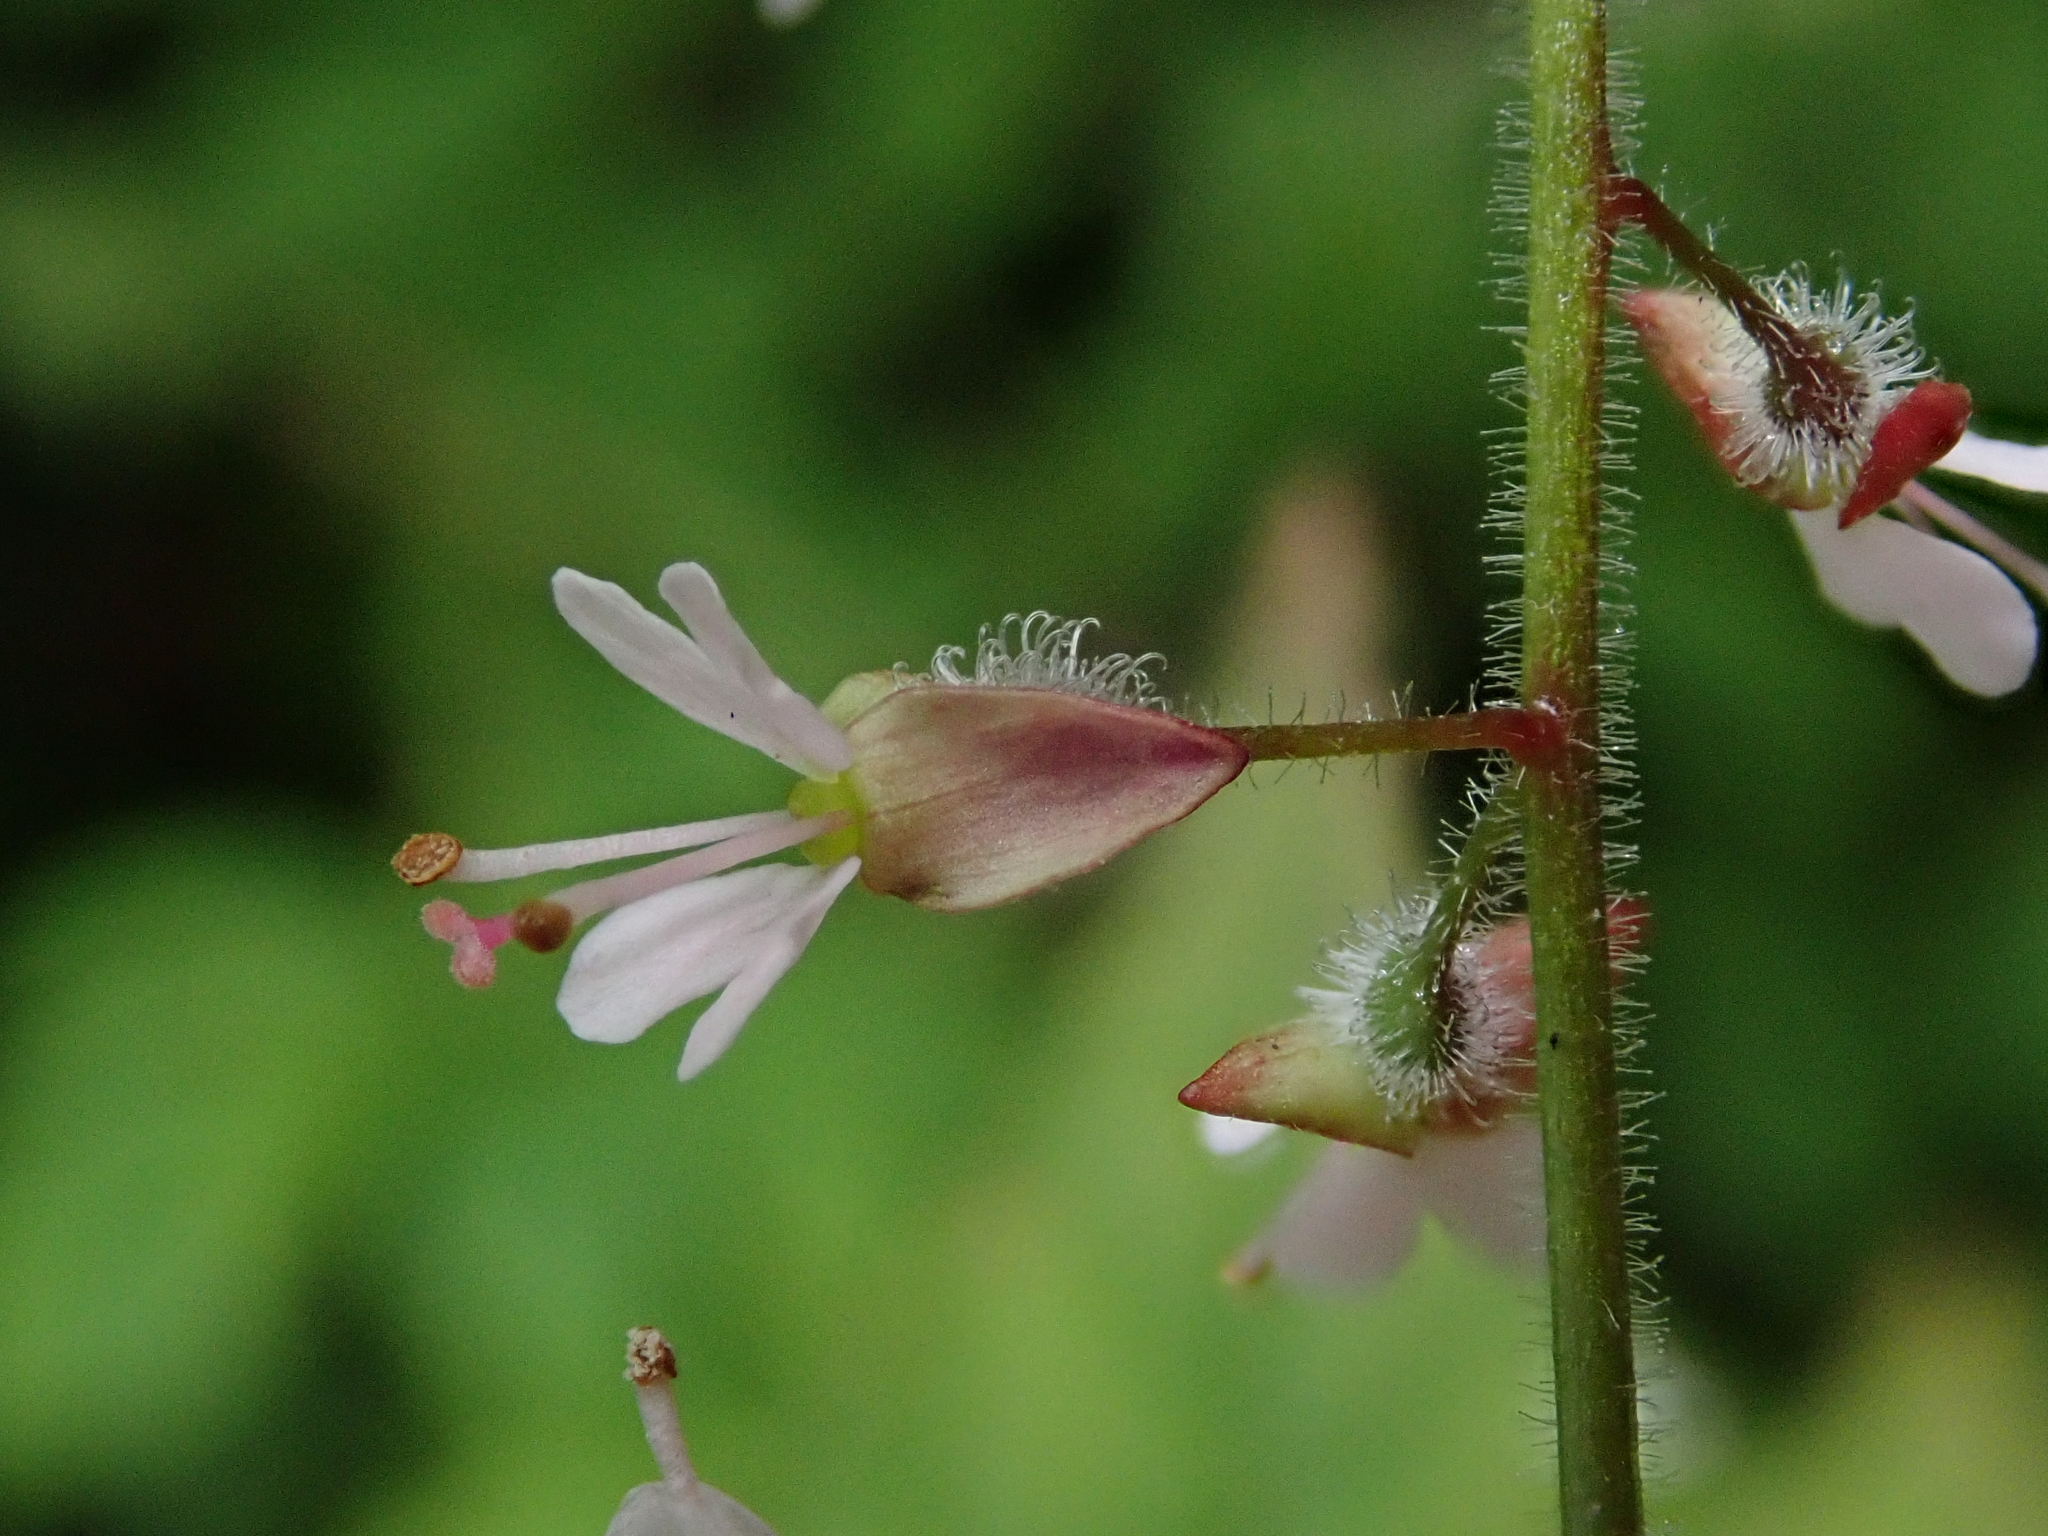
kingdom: Plantae
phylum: Tracheophyta
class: Magnoliopsida
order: Myrtales
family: Onagraceae
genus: Circaea
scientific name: Circaea lutetiana
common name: Enchanter's-nightshade
